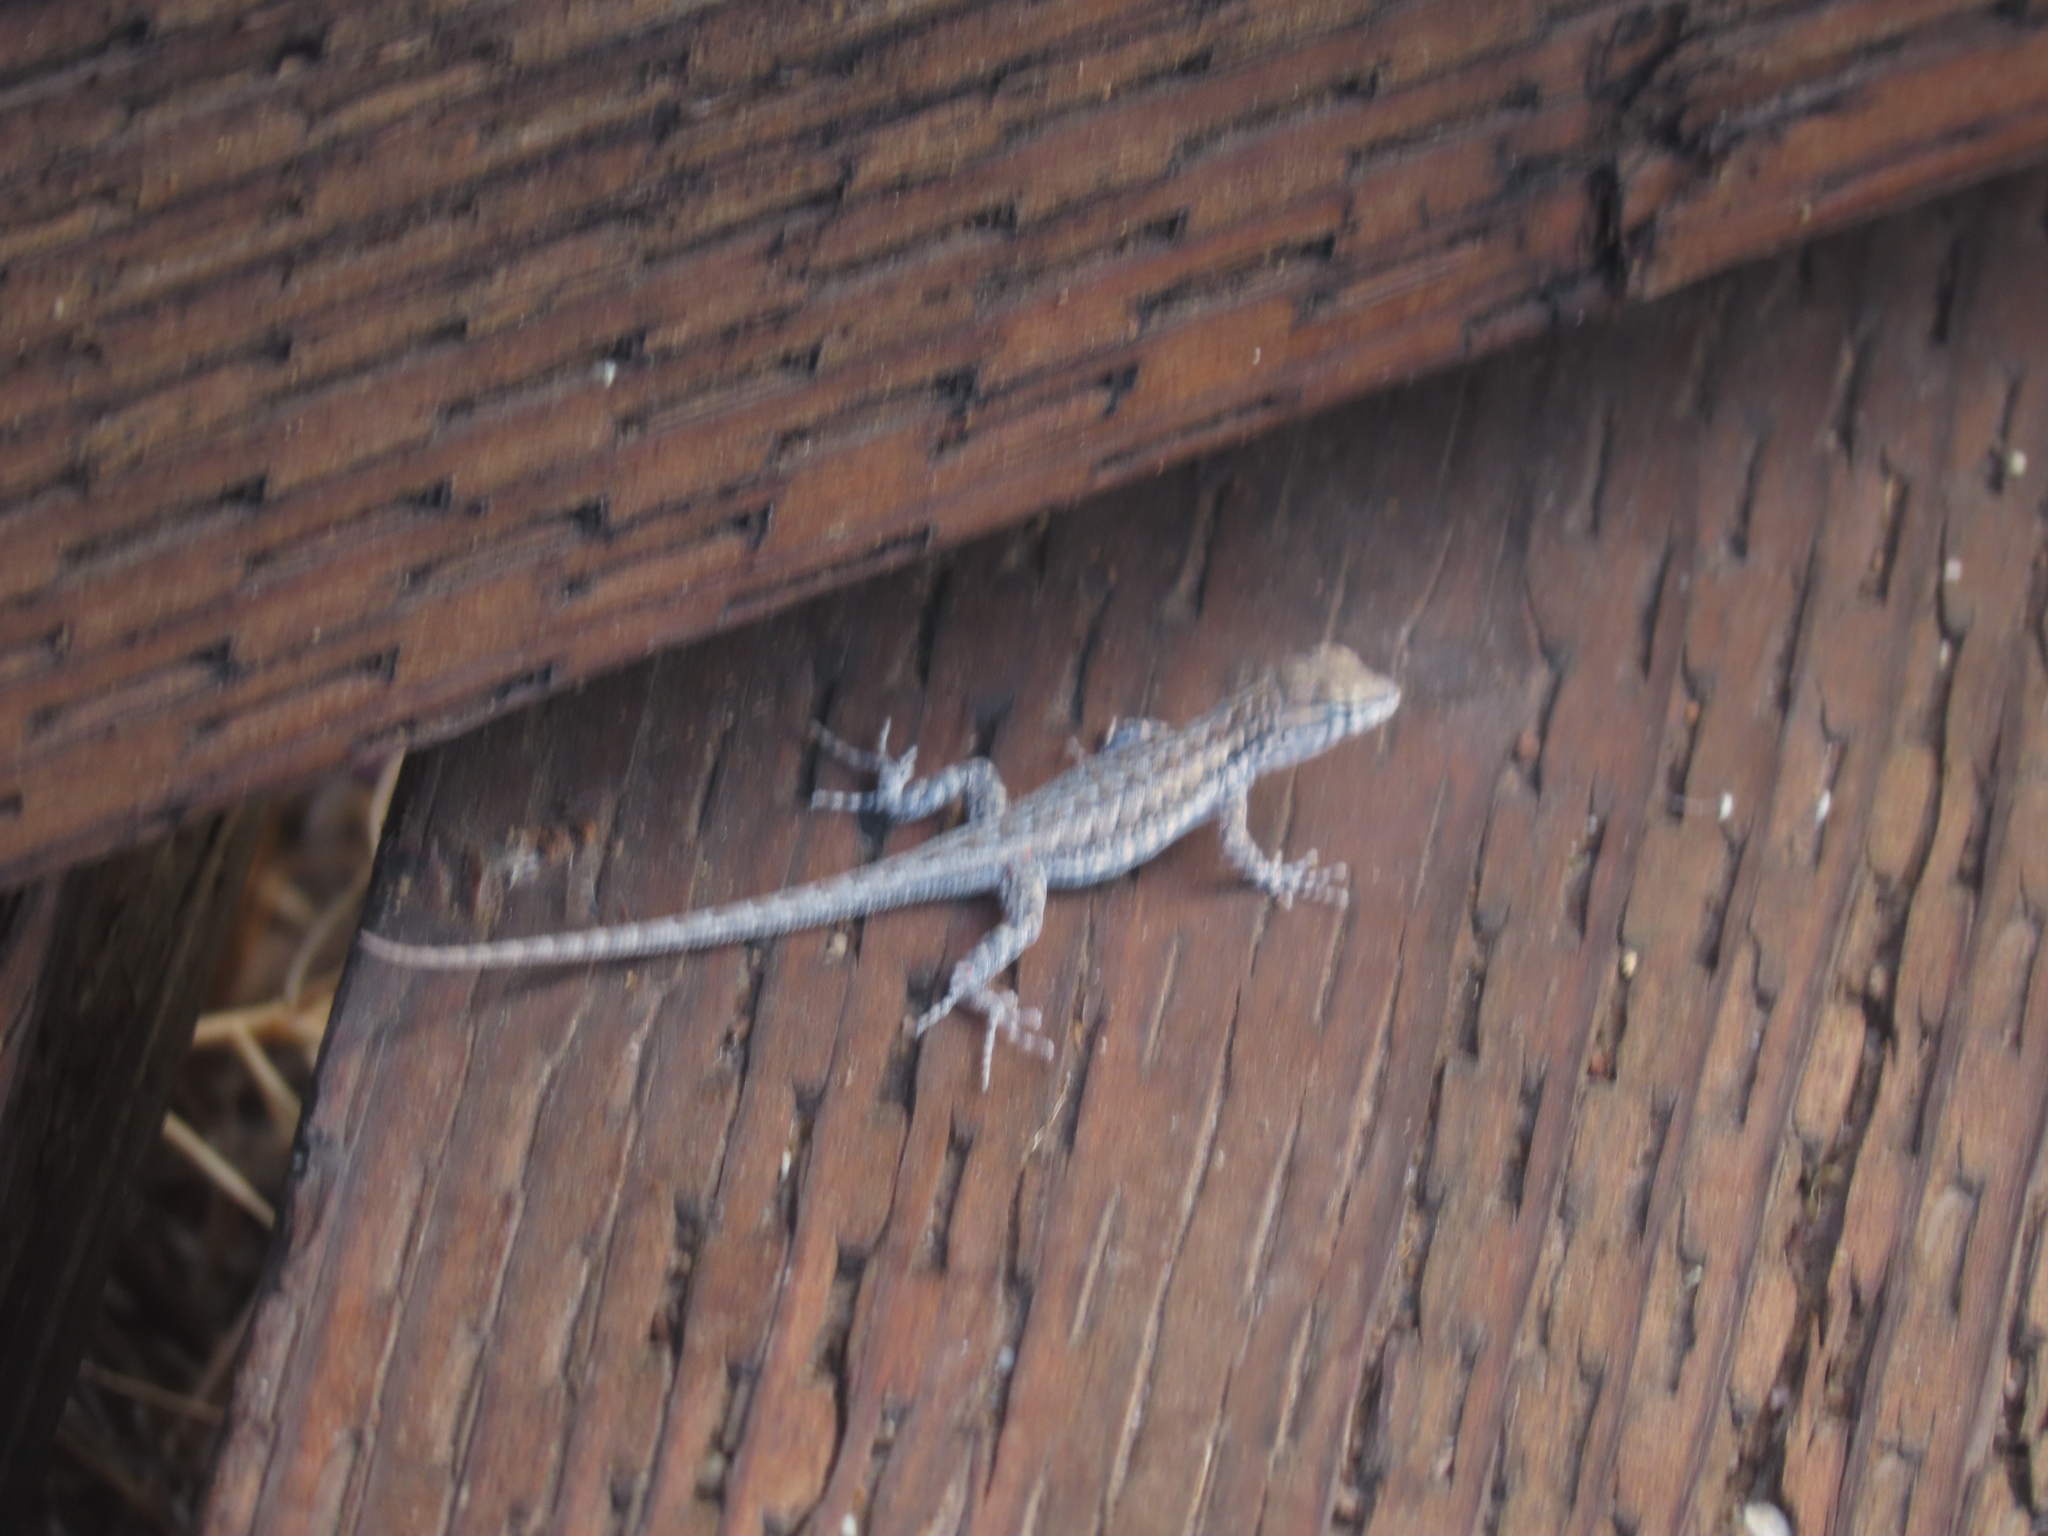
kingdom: Animalia
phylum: Chordata
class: Squamata
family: Phrynosomatidae
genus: Uta
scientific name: Uta stansburiana
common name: Side-blotched lizard
